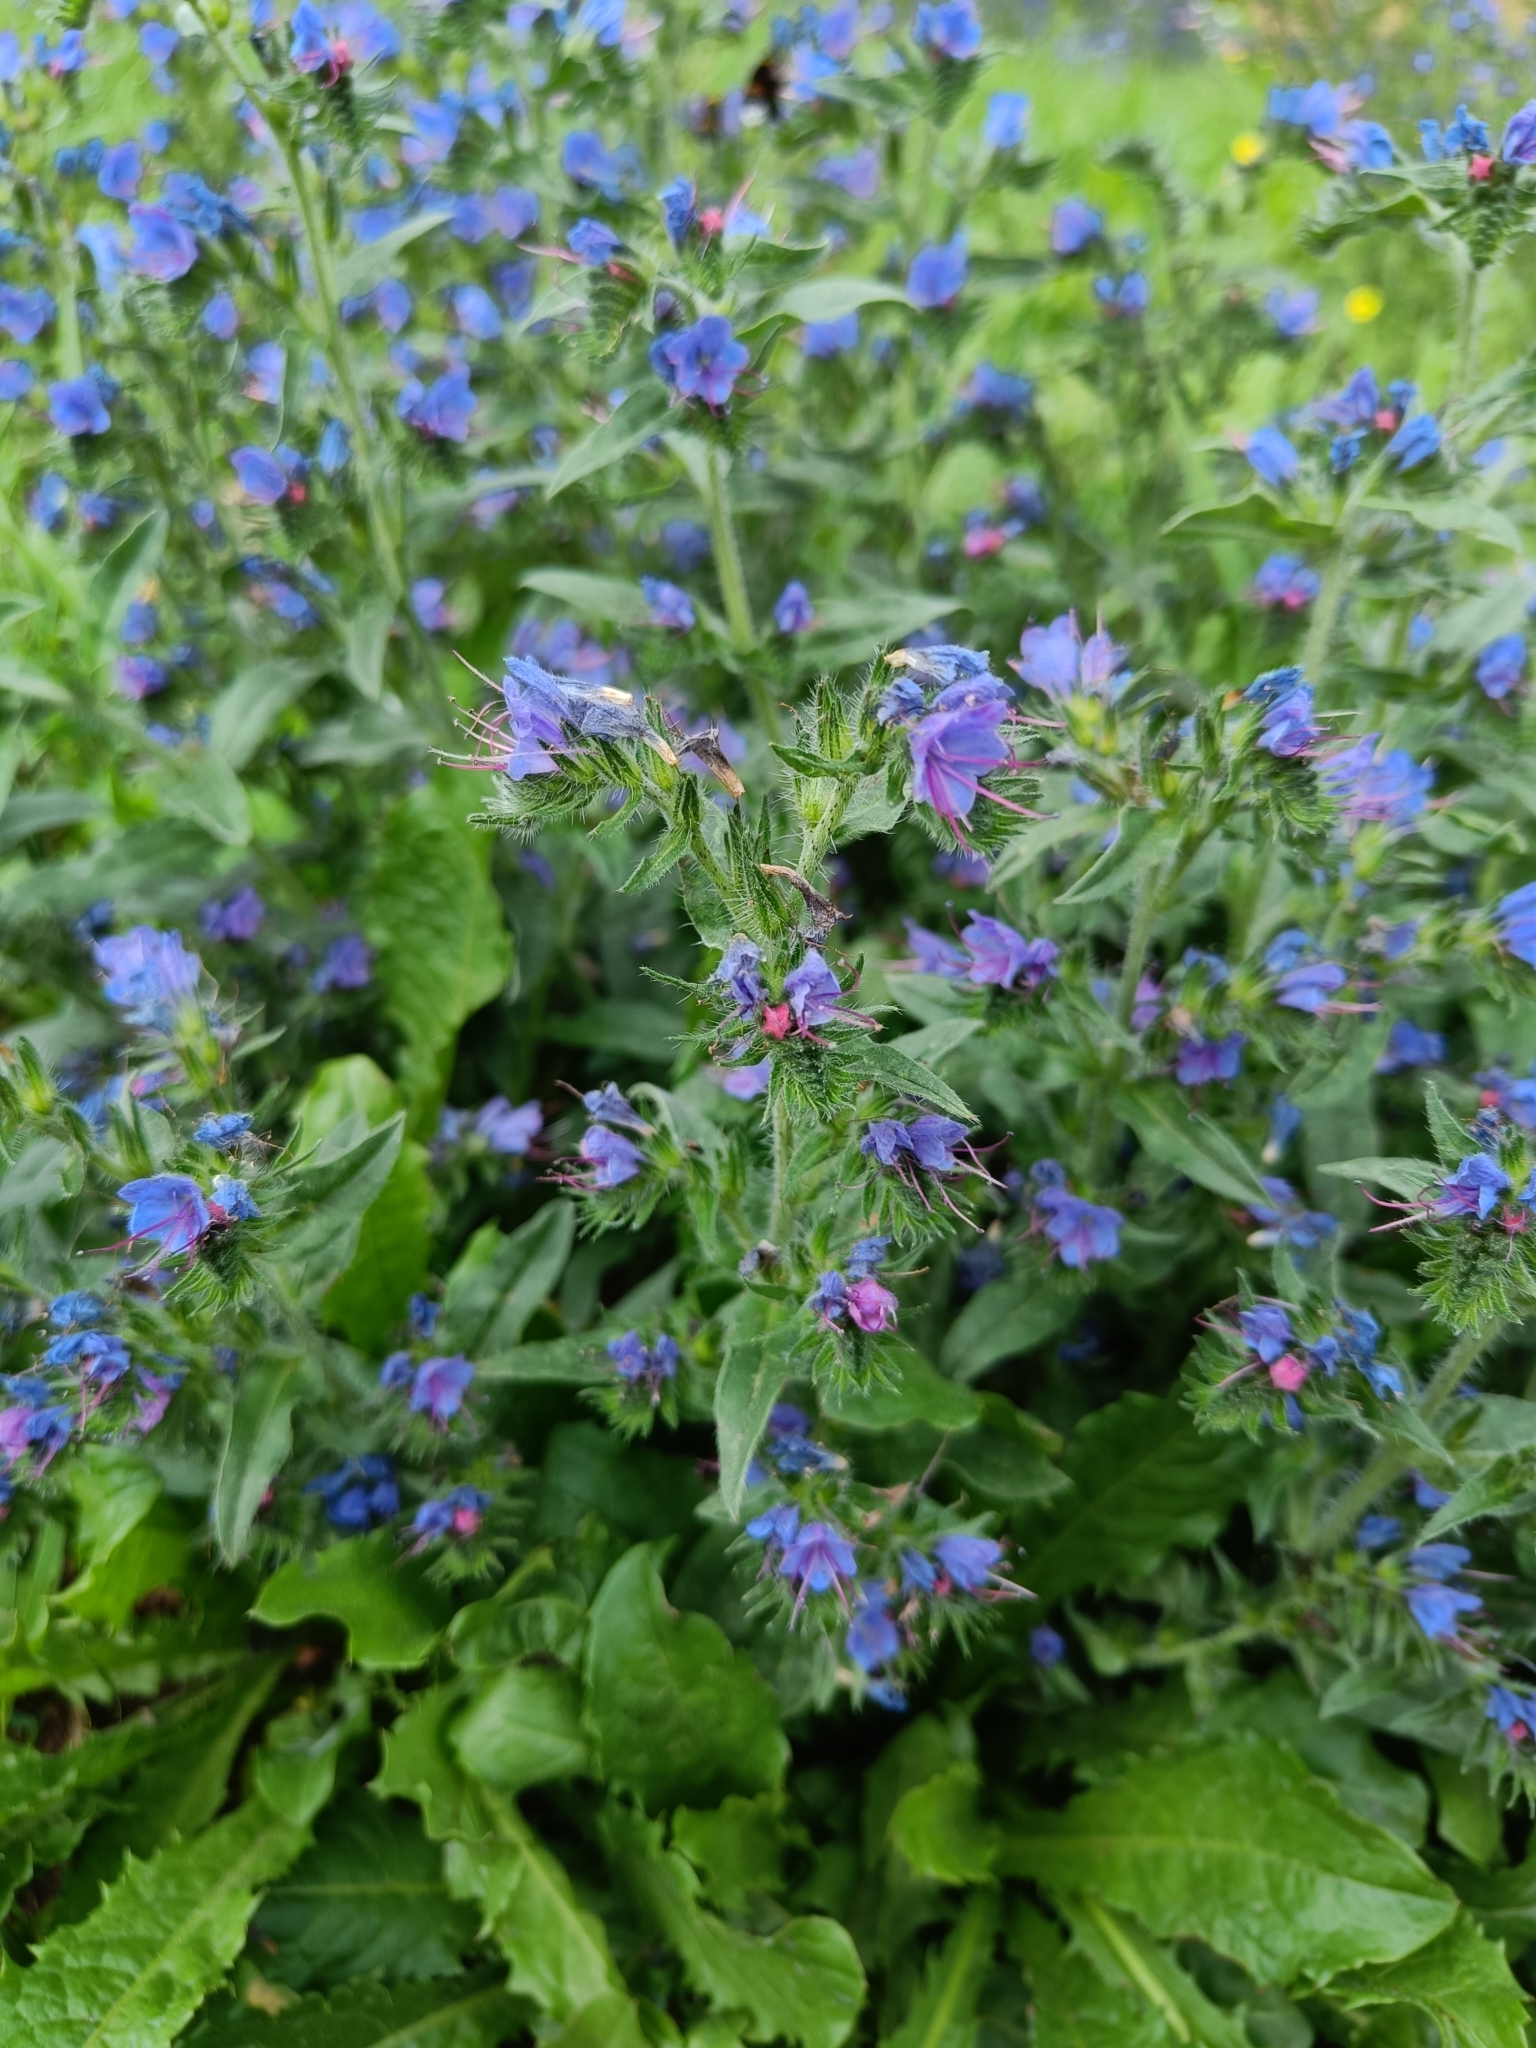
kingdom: Plantae
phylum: Tracheophyta
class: Magnoliopsida
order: Boraginales
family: Boraginaceae
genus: Echium
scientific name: Echium vulgare
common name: Common viper's bugloss
